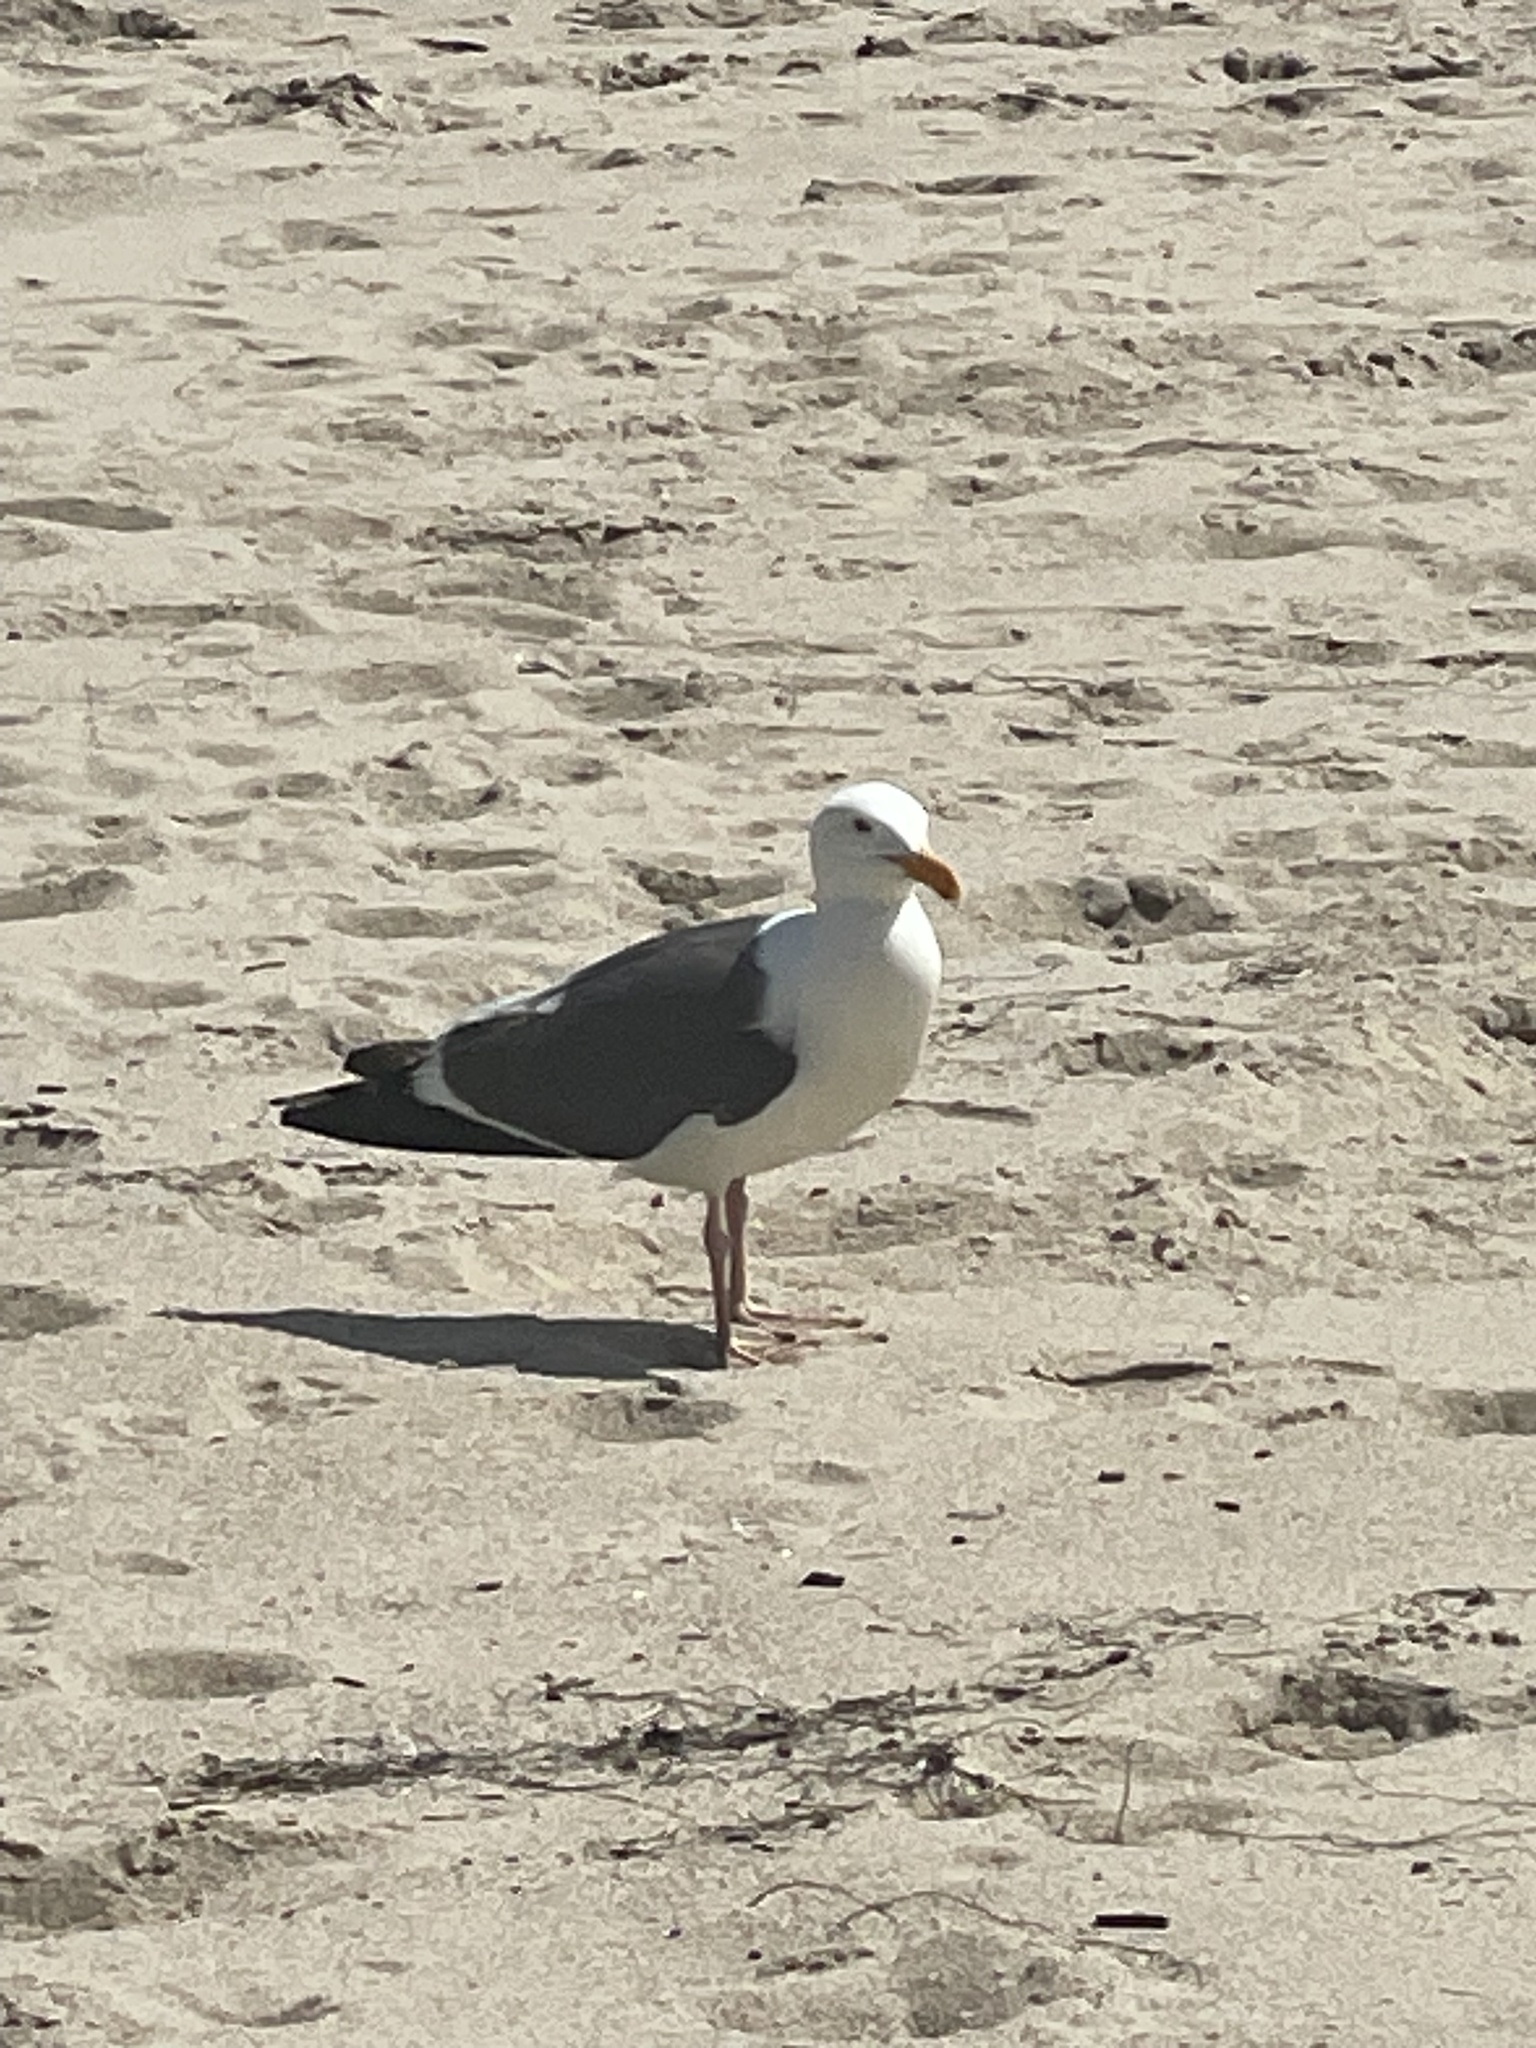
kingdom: Animalia
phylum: Chordata
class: Aves
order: Charadriiformes
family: Laridae
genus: Larus
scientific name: Larus occidentalis
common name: Western gull
